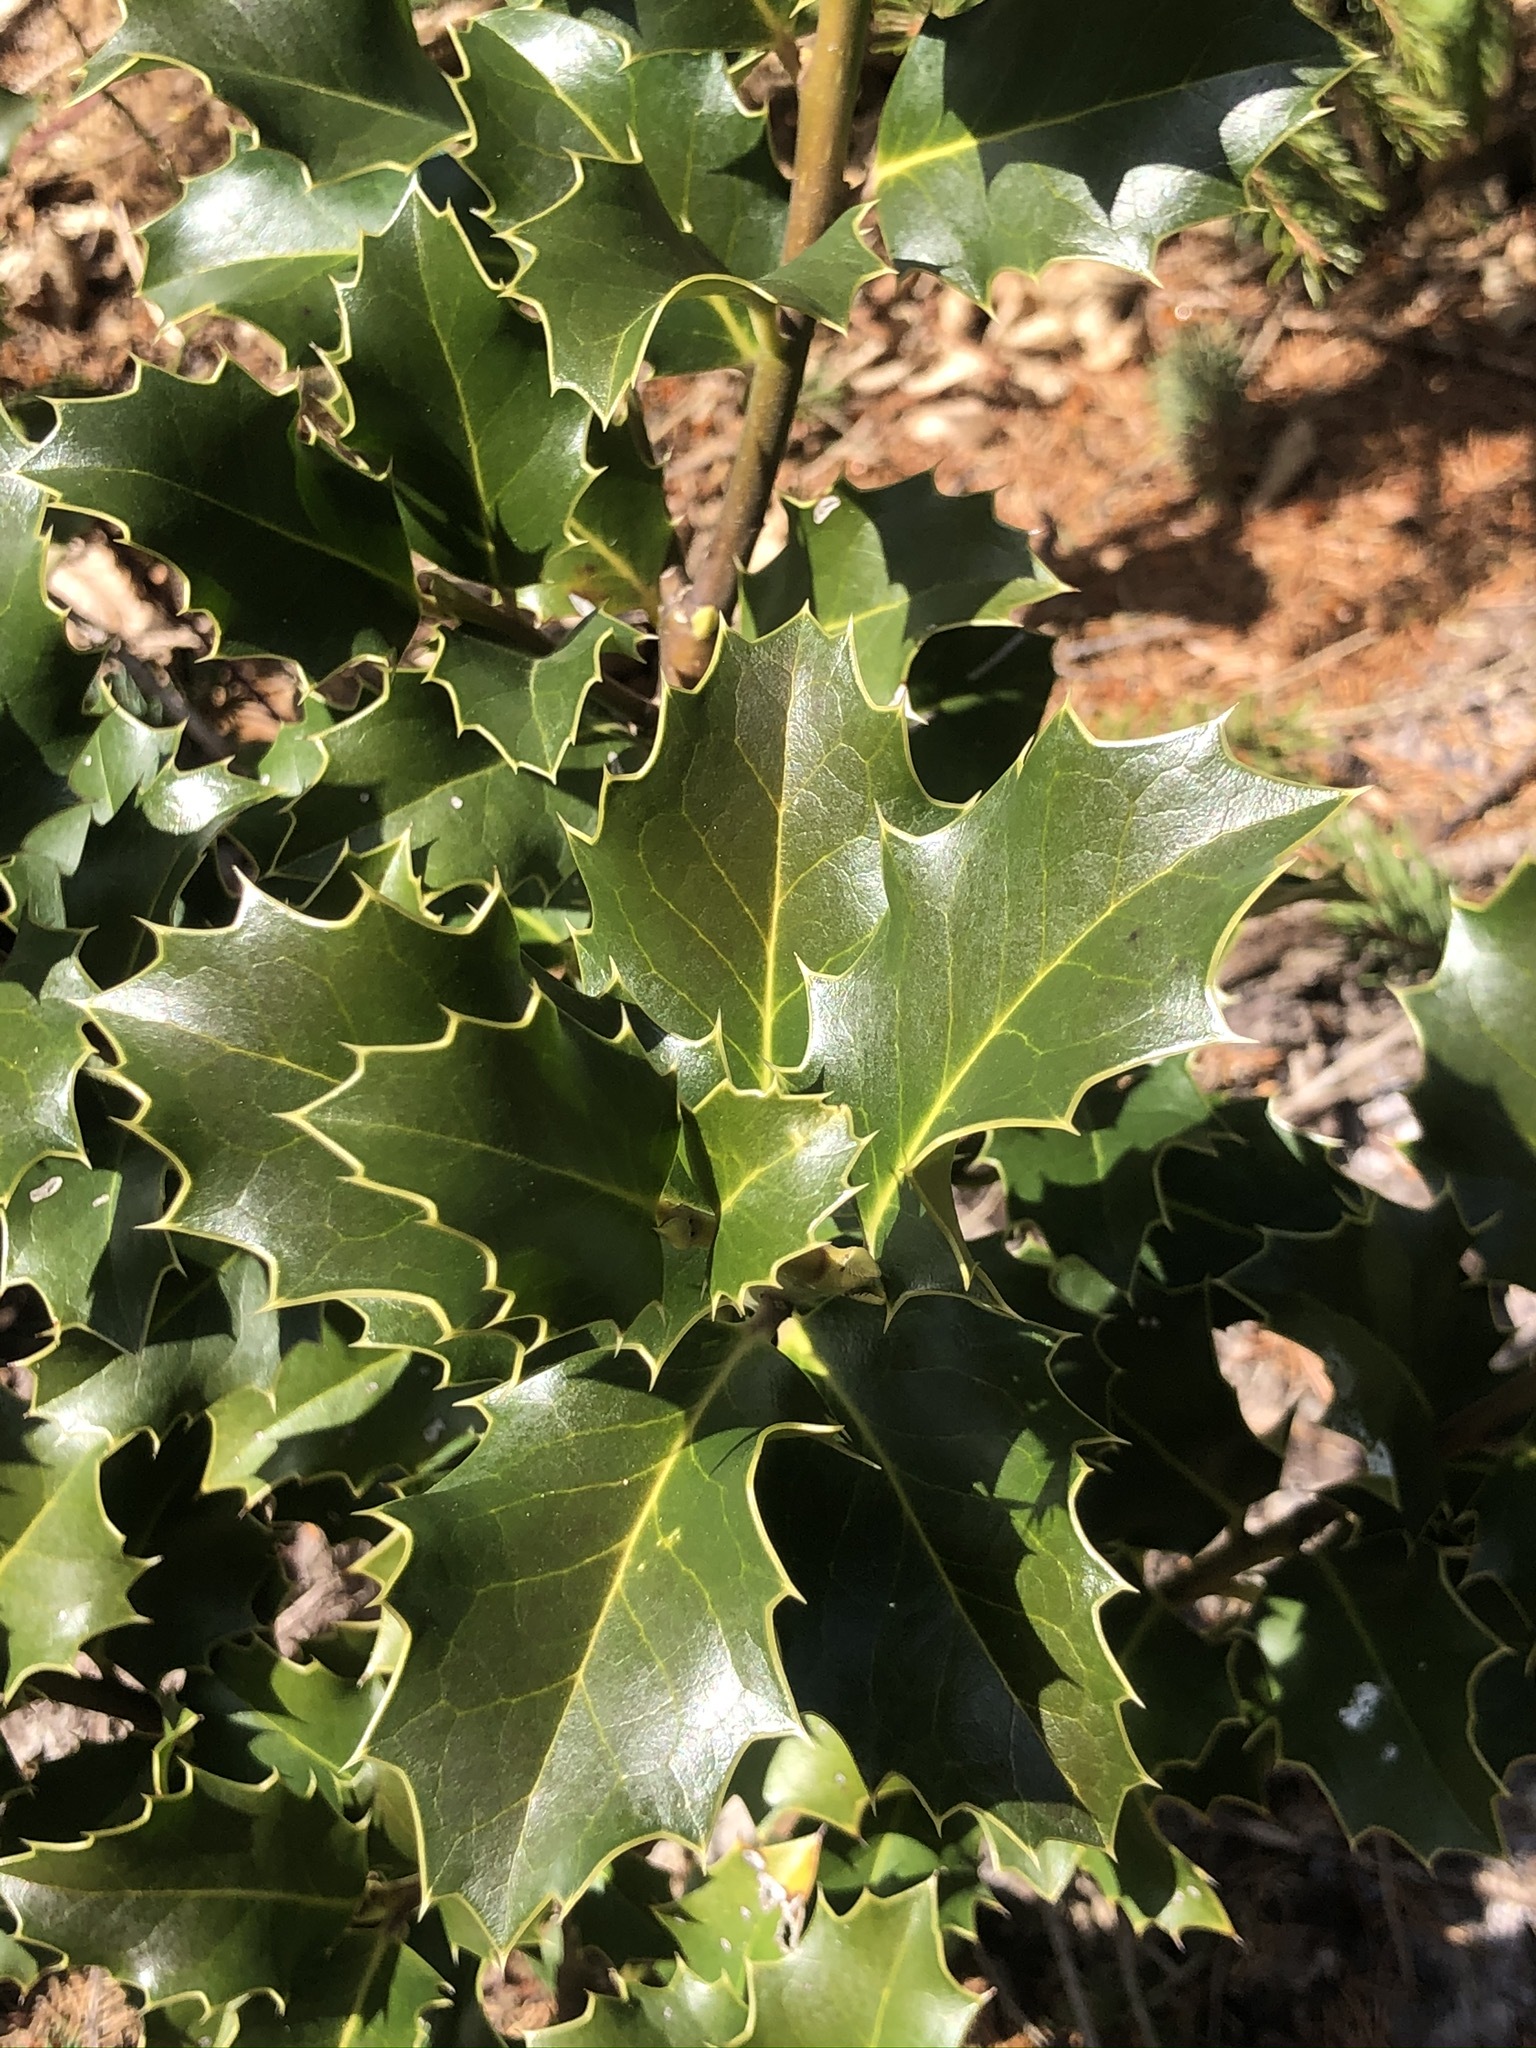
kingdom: Plantae
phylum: Tracheophyta
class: Magnoliopsida
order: Aquifoliales
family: Aquifoliaceae
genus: Ilex
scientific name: Ilex aquifolium
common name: English holly
